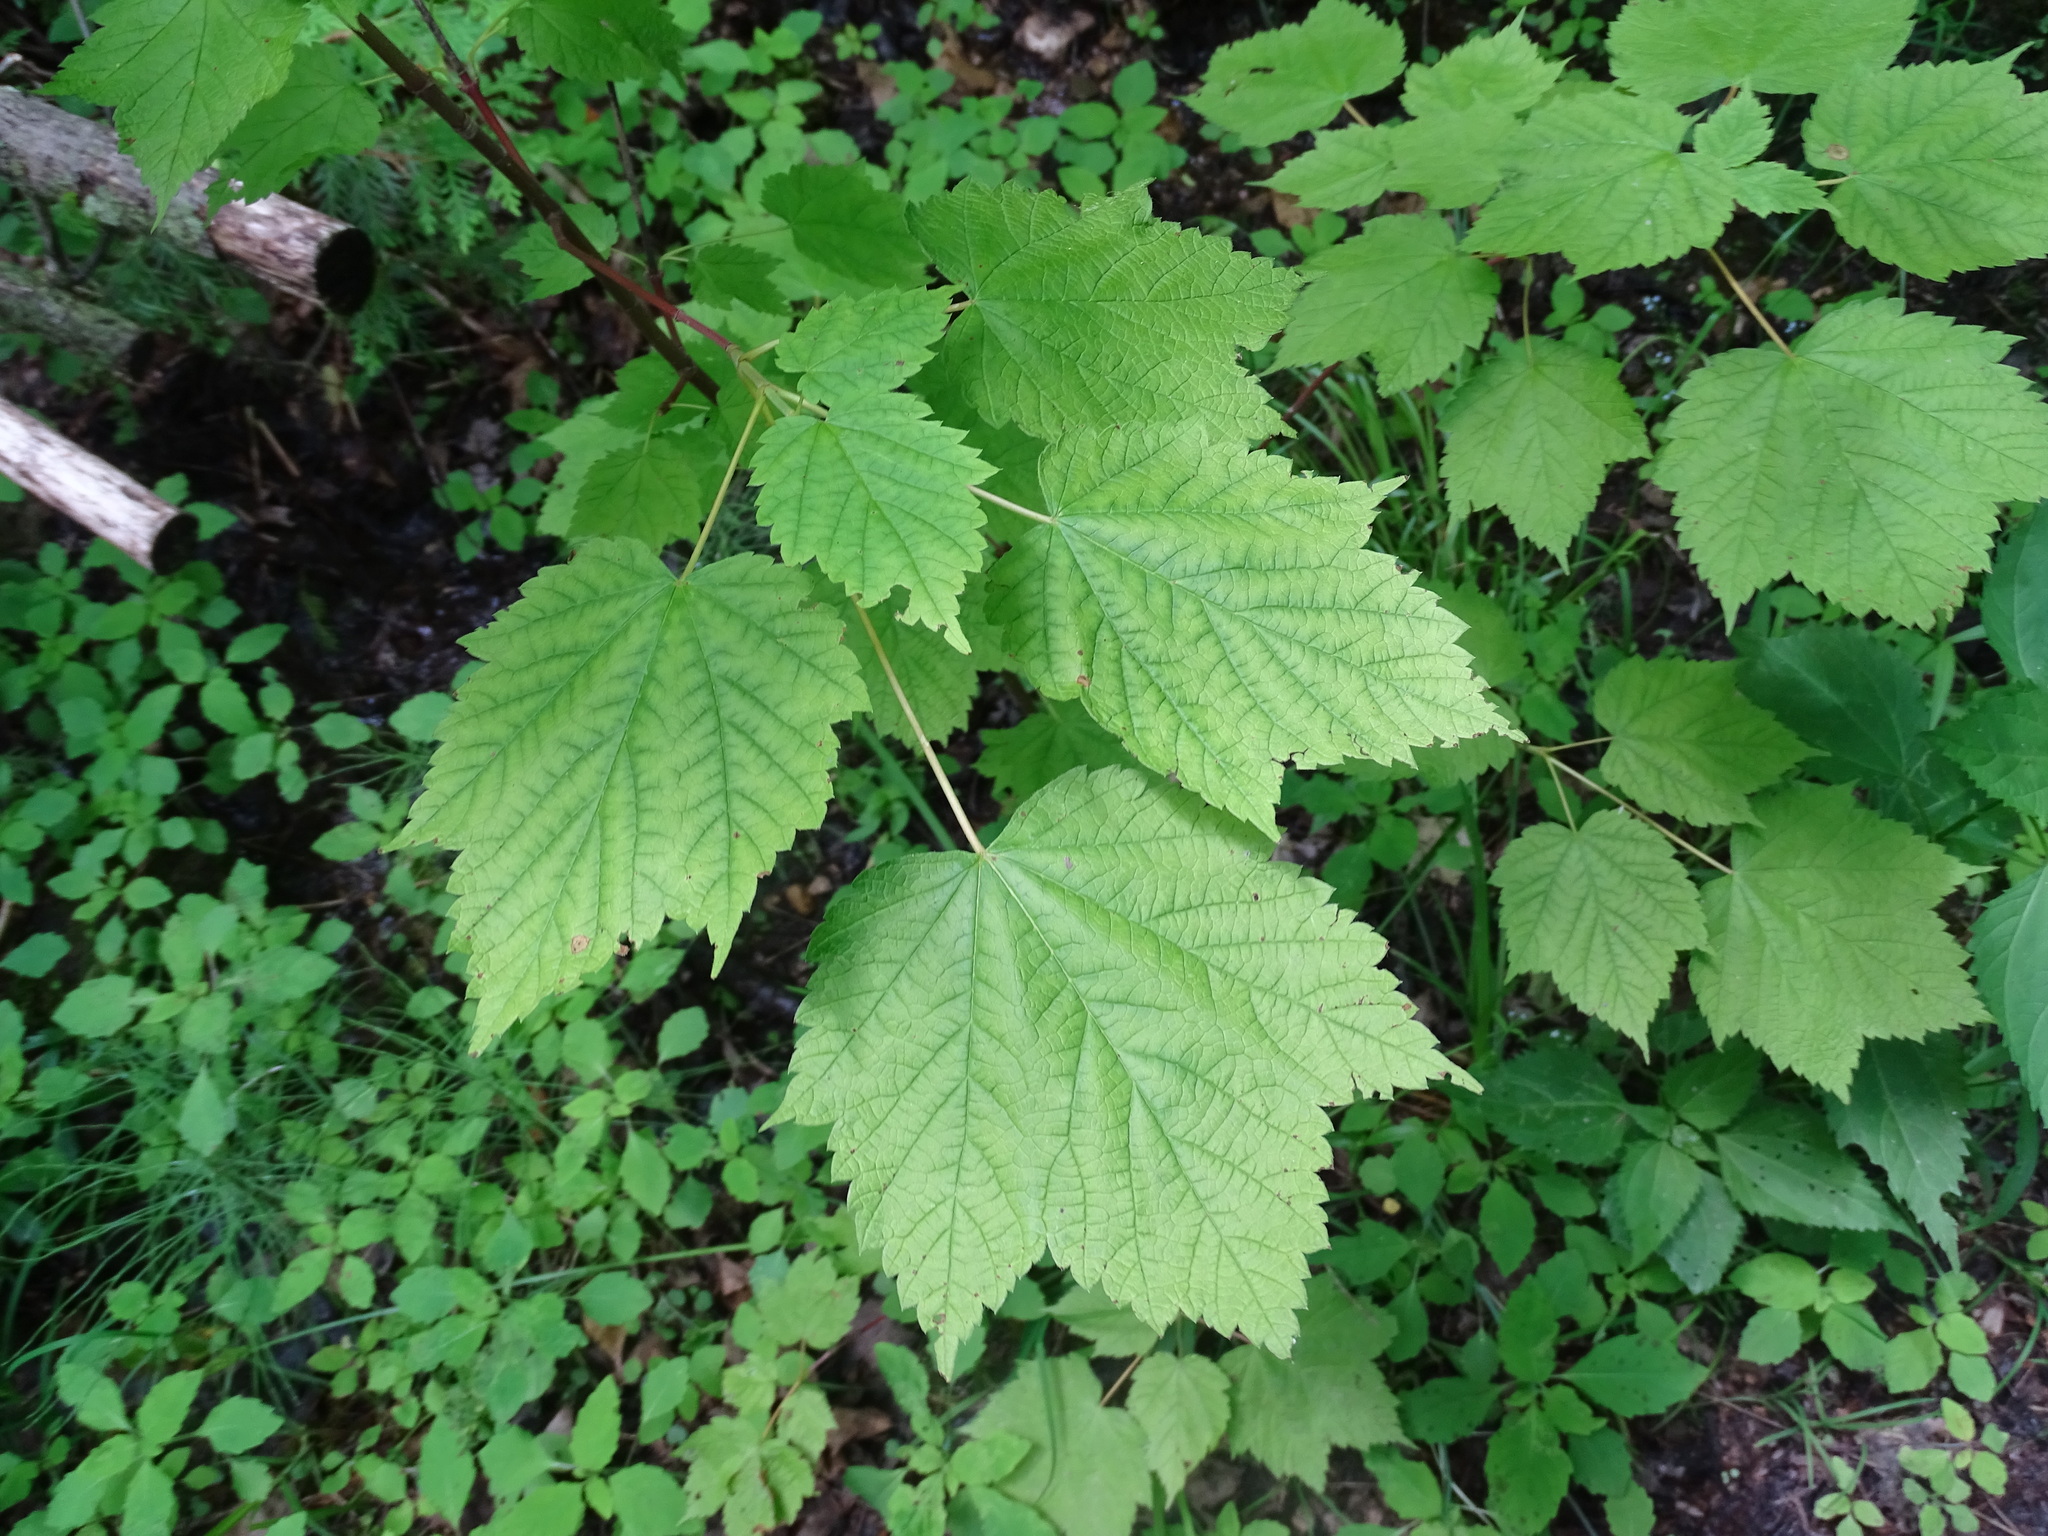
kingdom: Plantae
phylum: Tracheophyta
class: Magnoliopsida
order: Sapindales
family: Sapindaceae
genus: Acer
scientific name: Acer spicatum
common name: Mountain maple
